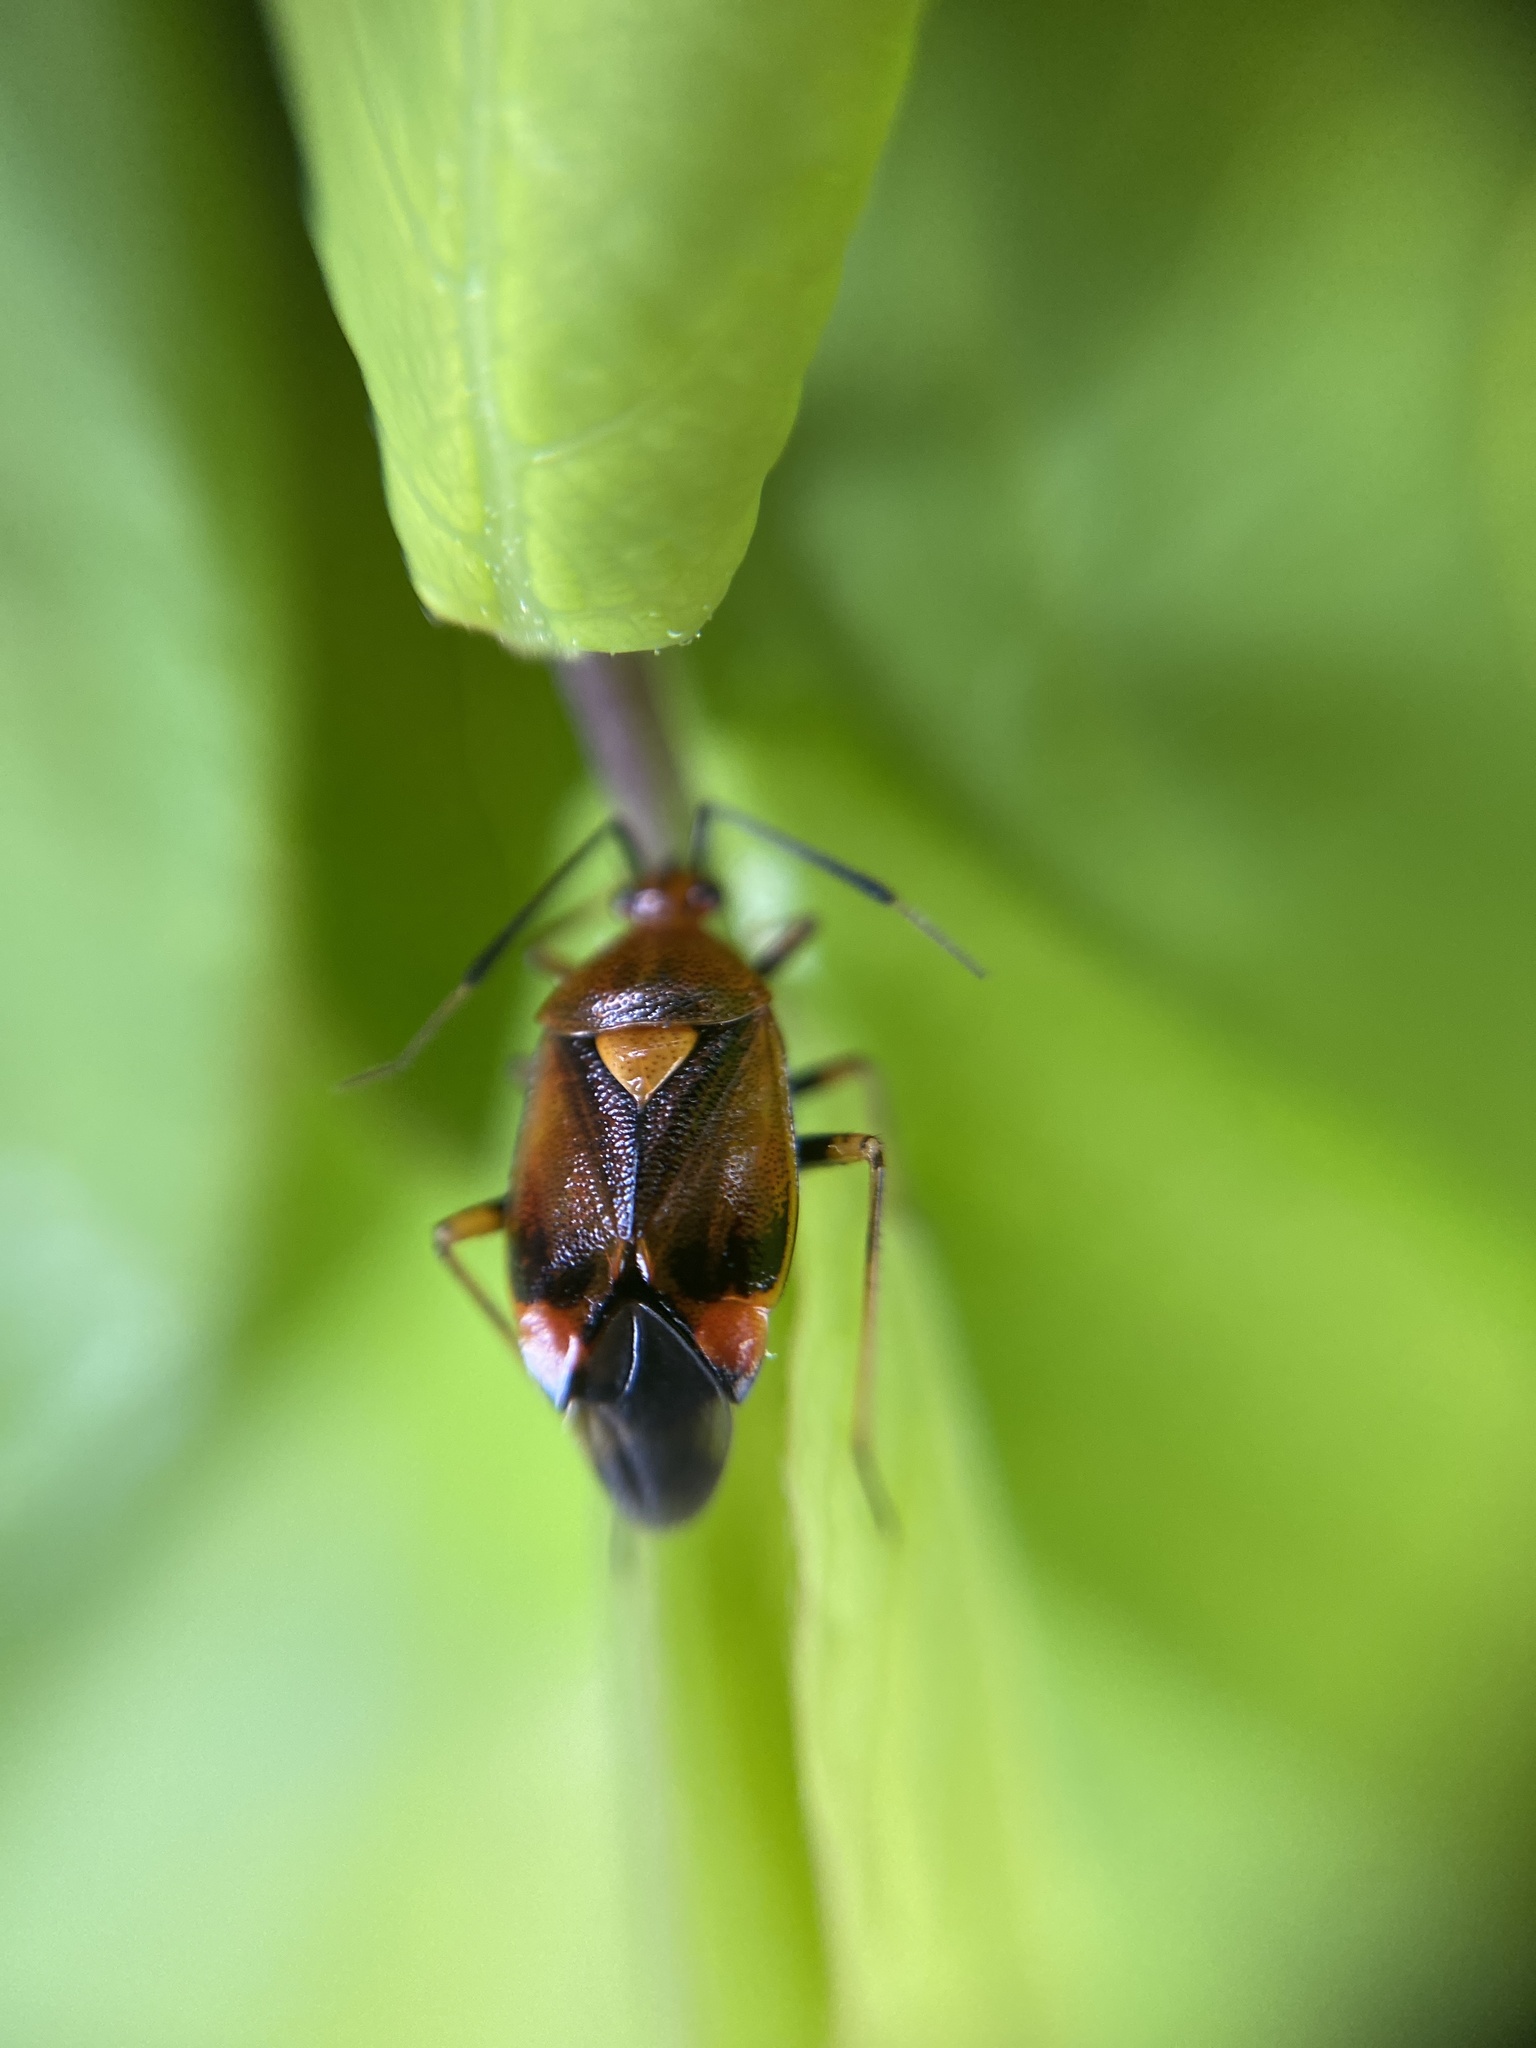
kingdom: Animalia
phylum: Arthropoda
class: Insecta
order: Hemiptera
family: Miridae
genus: Deraeocoris
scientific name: Deraeocoris ruber
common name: Plant bug
